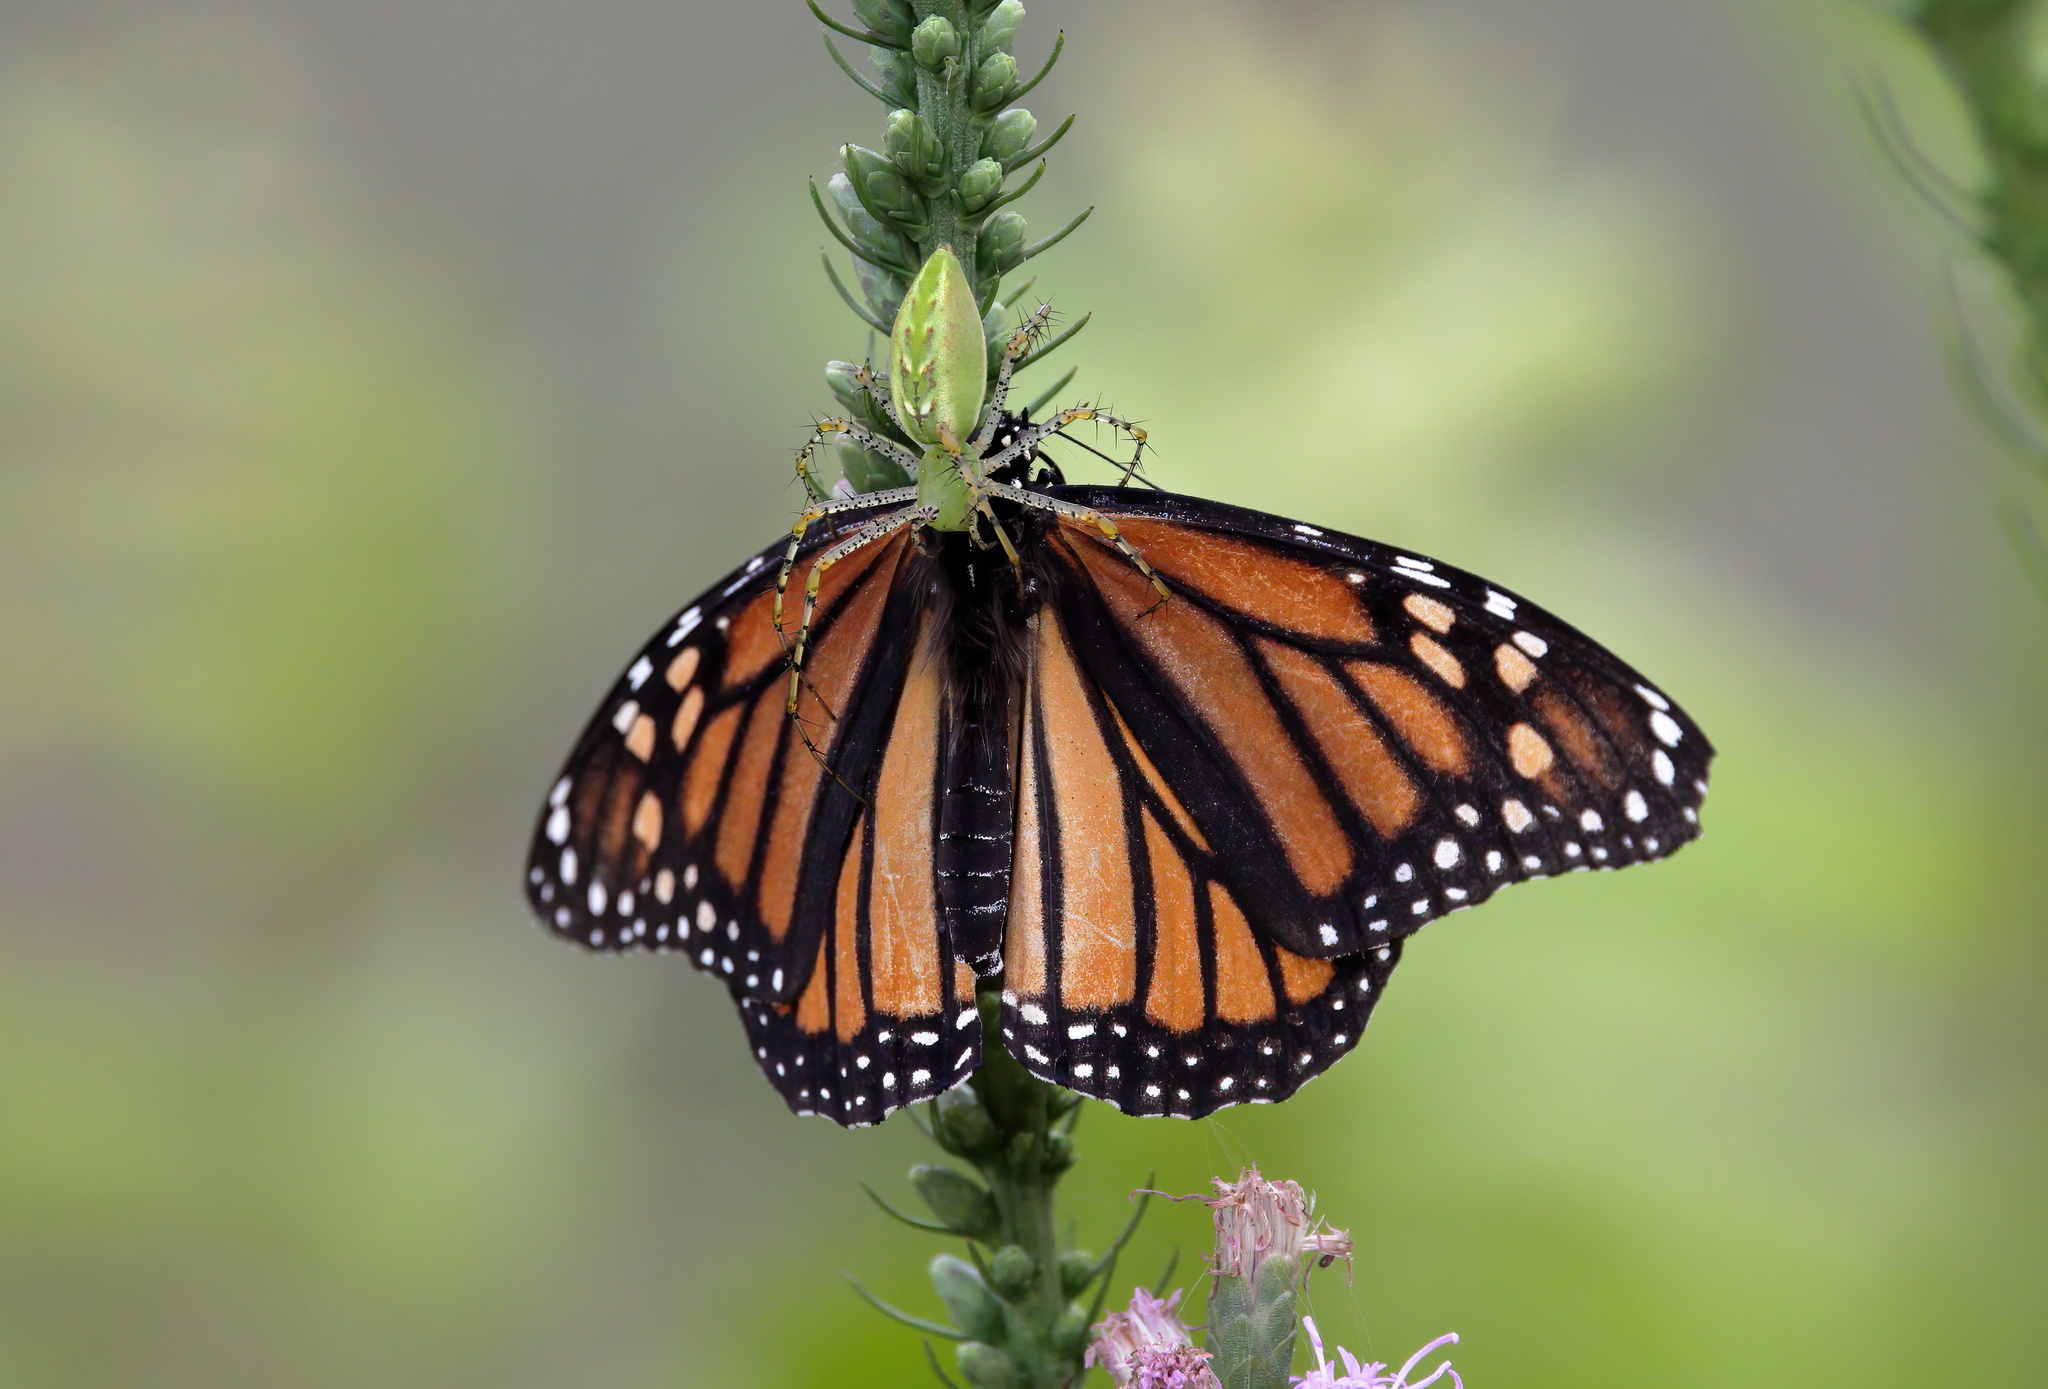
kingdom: Animalia
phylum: Arthropoda
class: Arachnida
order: Araneae
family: Oxyopidae
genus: Peucetia
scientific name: Peucetia viridans
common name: Lynx spiders
